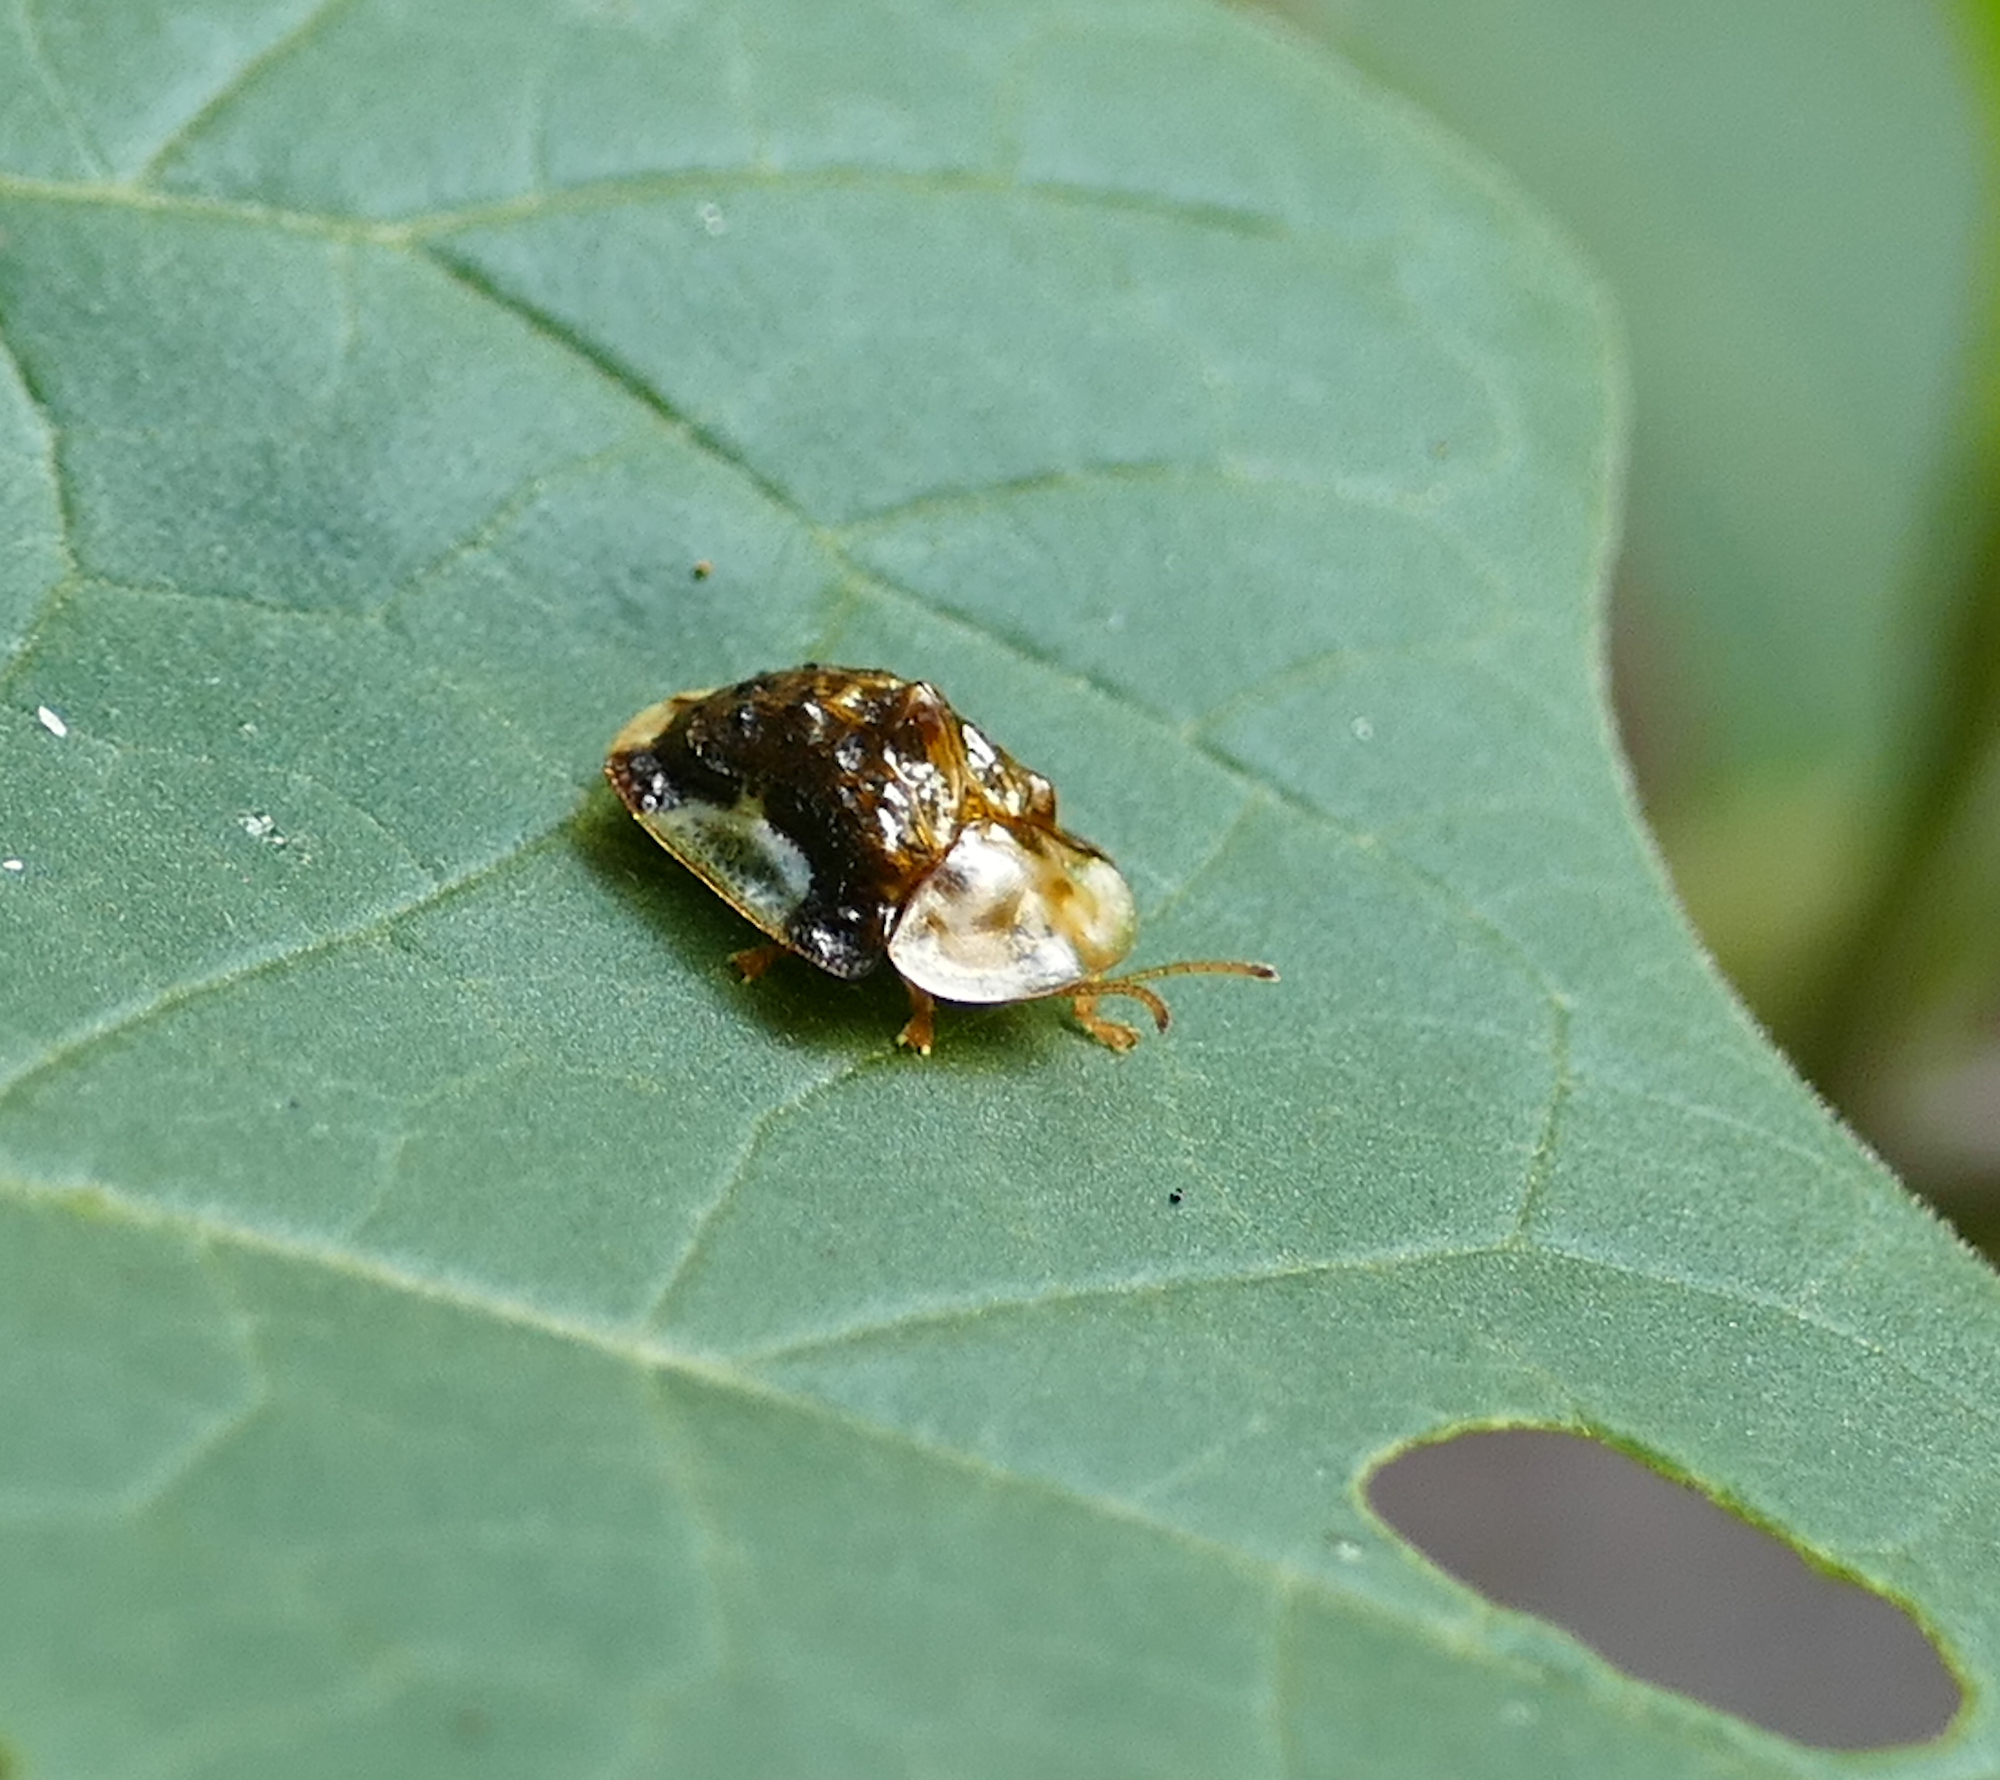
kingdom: Animalia
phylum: Arthropoda
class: Insecta
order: Coleoptera
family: Chrysomelidae
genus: Helocassis
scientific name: Helocassis testudinaria
